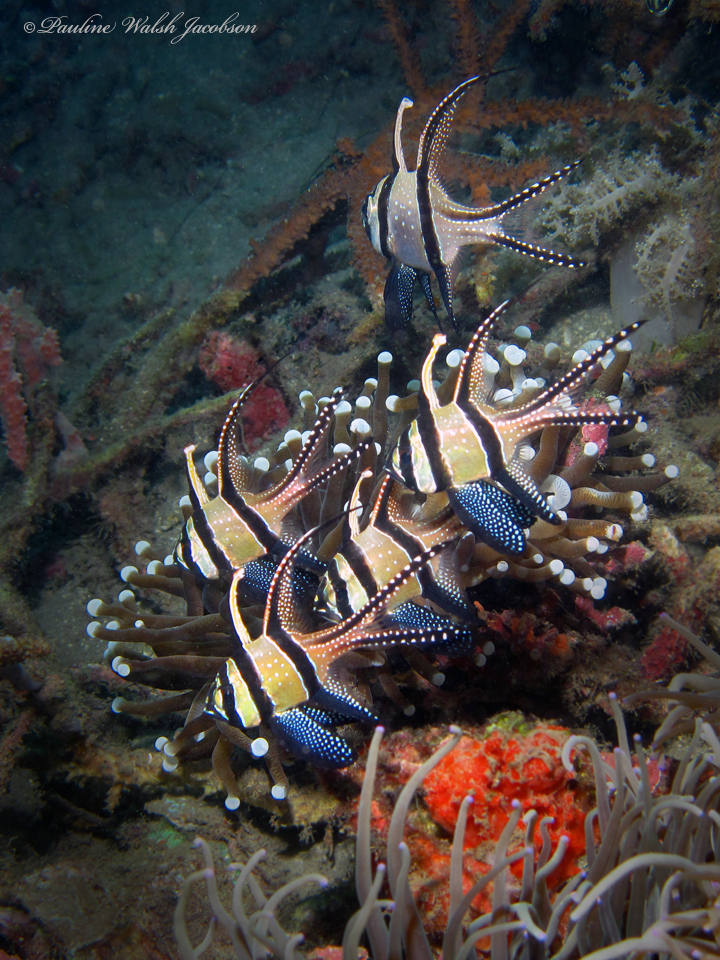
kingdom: Animalia
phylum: Chordata
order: Perciformes
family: Apogonidae
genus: Pterapogon
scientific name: Pterapogon kauderni
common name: Banggai cardinalfish
